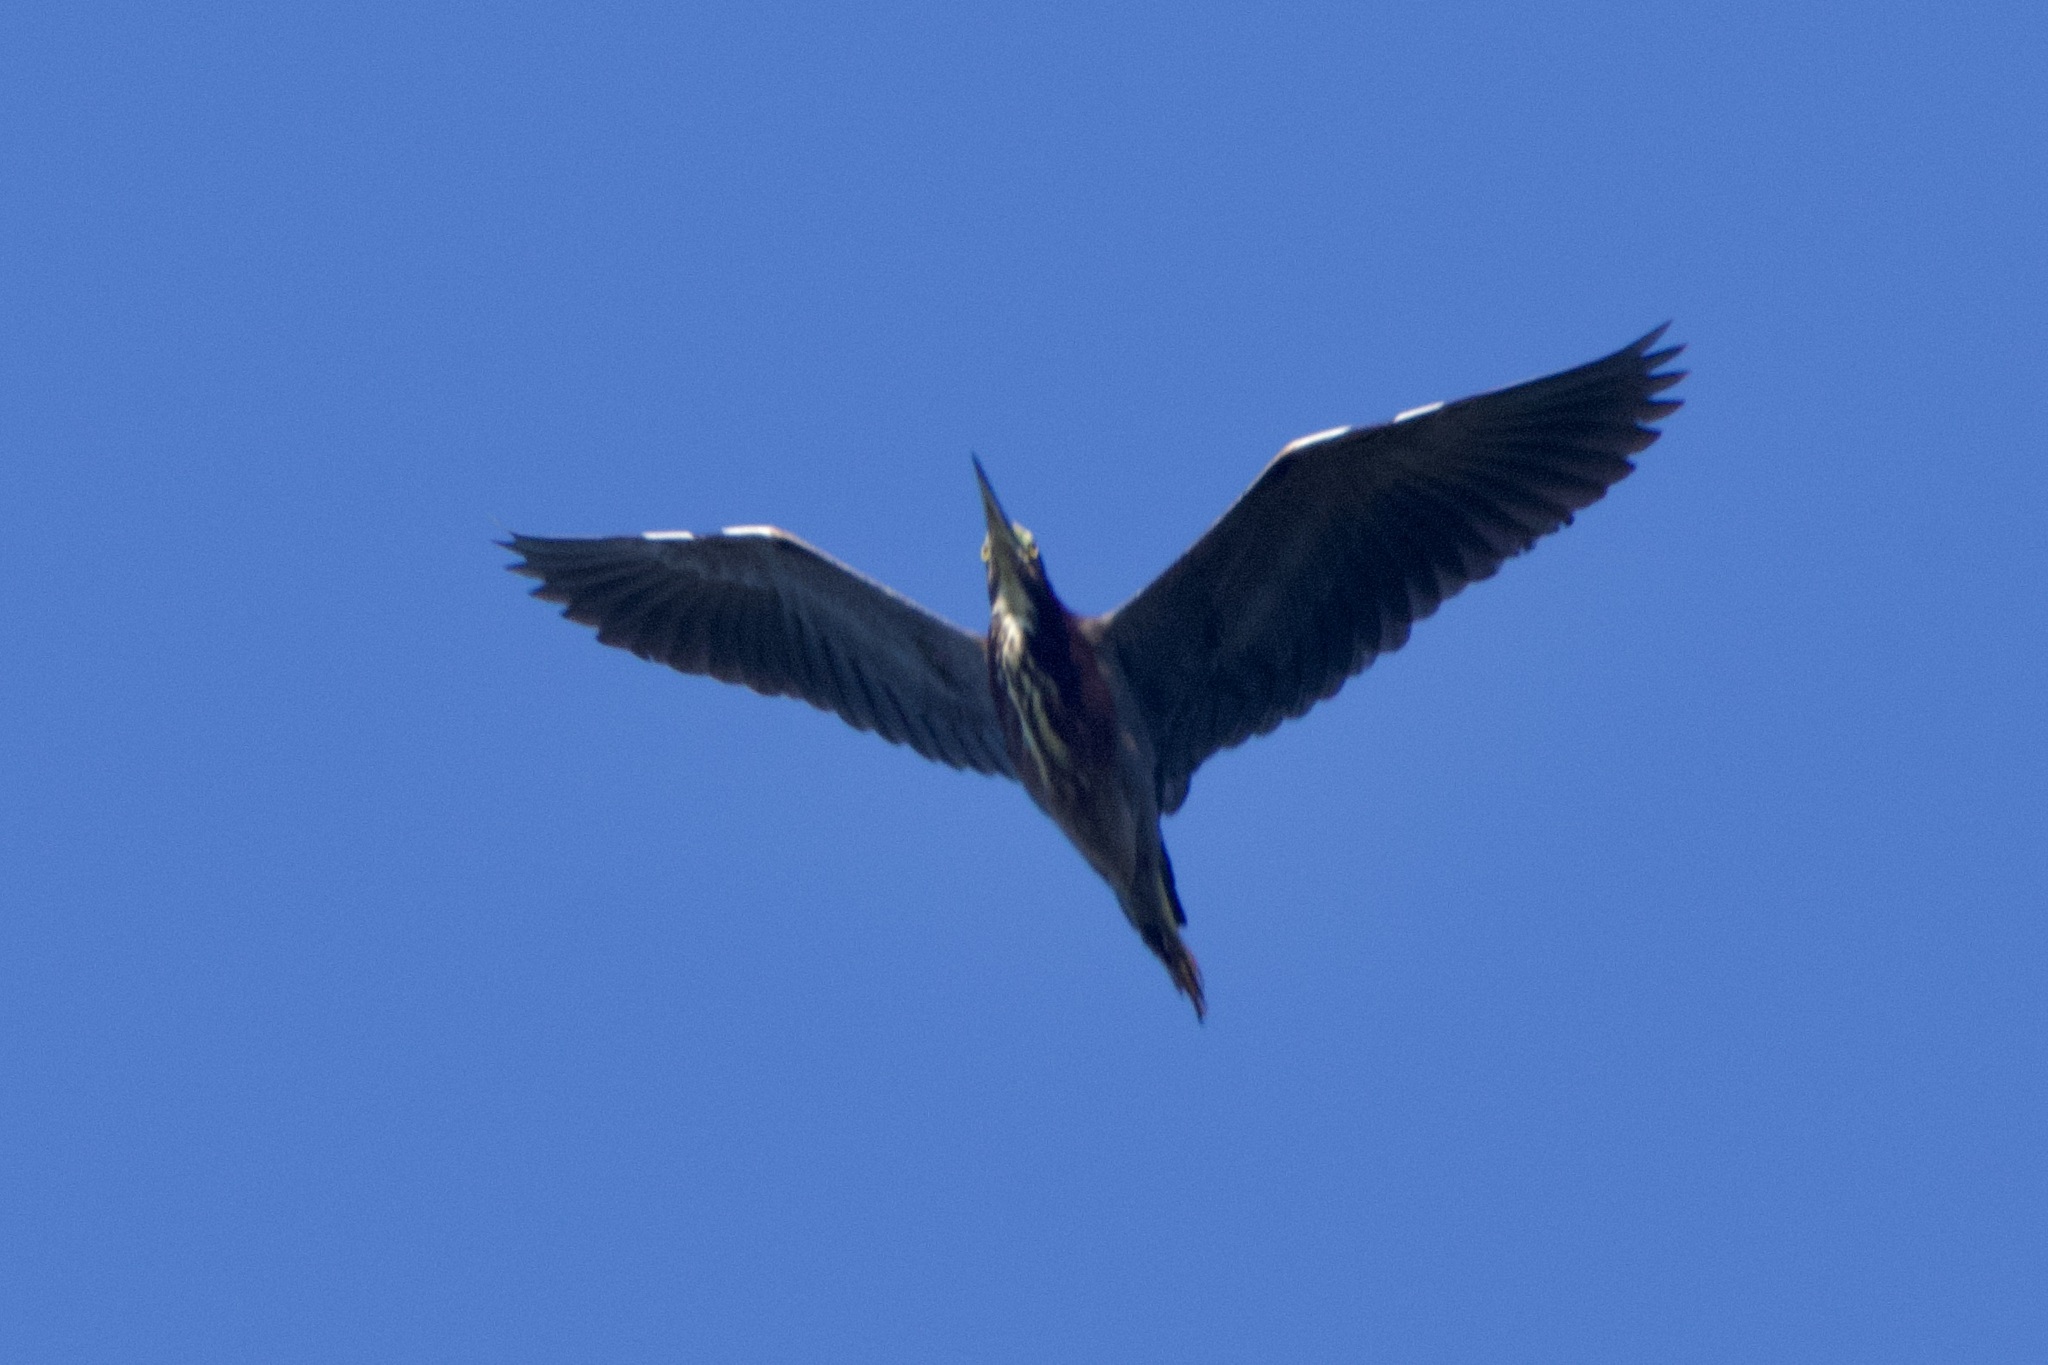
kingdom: Animalia
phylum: Chordata
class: Aves
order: Pelecaniformes
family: Ardeidae
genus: Butorides
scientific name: Butorides virescens
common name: Green heron
